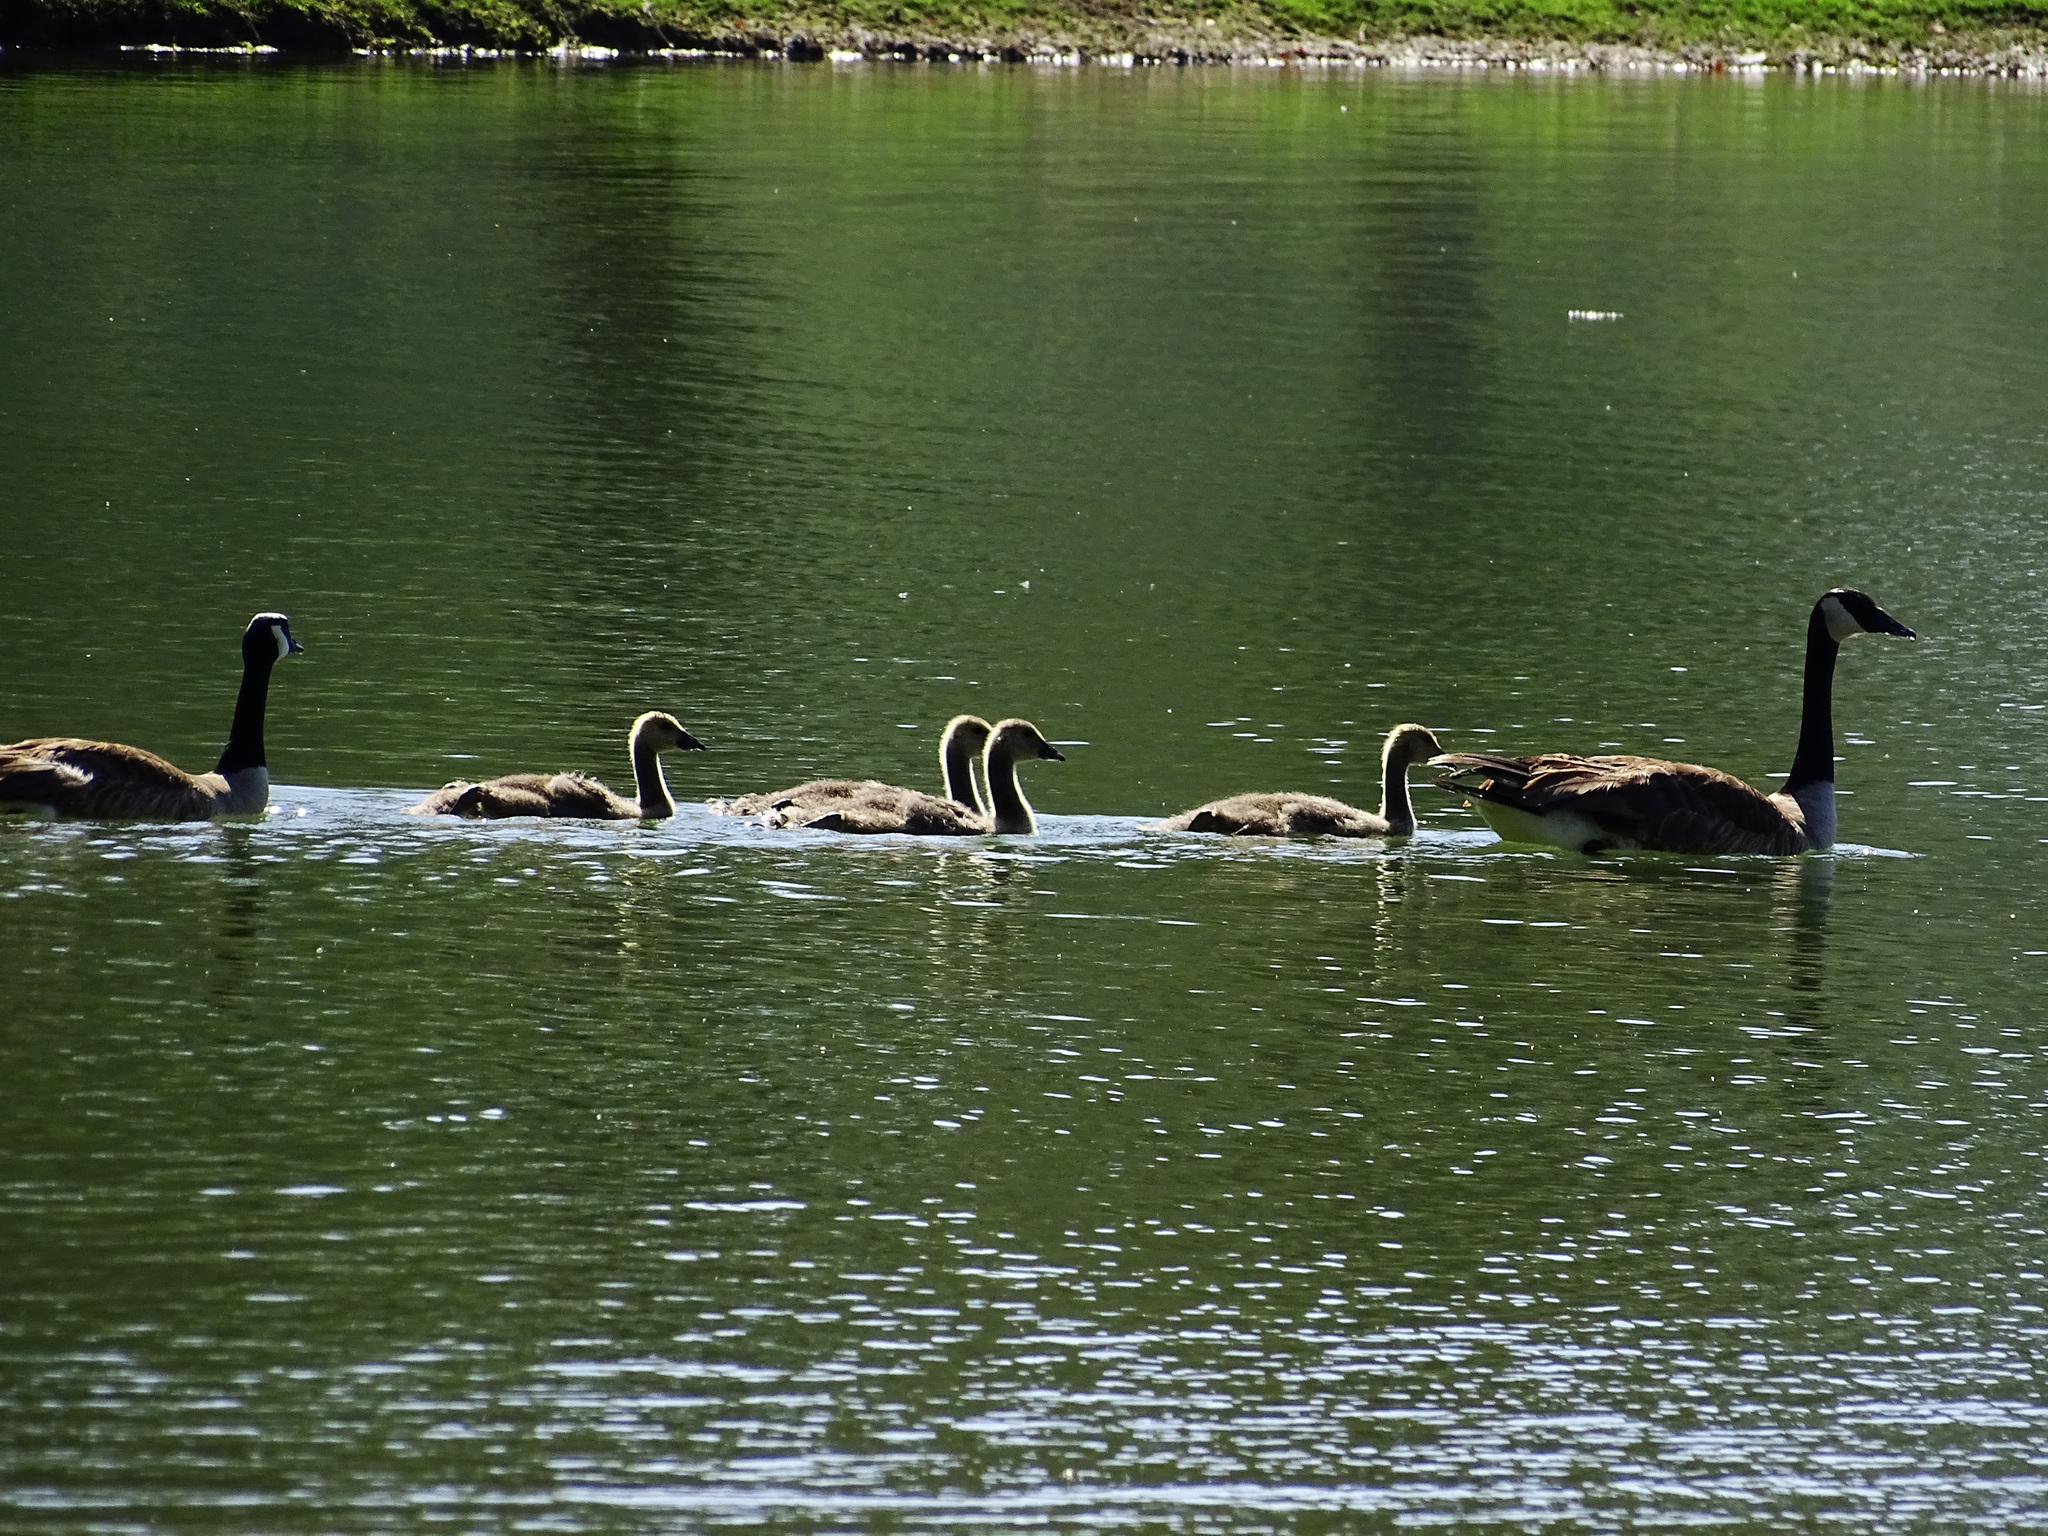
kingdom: Animalia
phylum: Chordata
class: Aves
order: Anseriformes
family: Anatidae
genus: Branta
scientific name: Branta canadensis
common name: Canada goose
